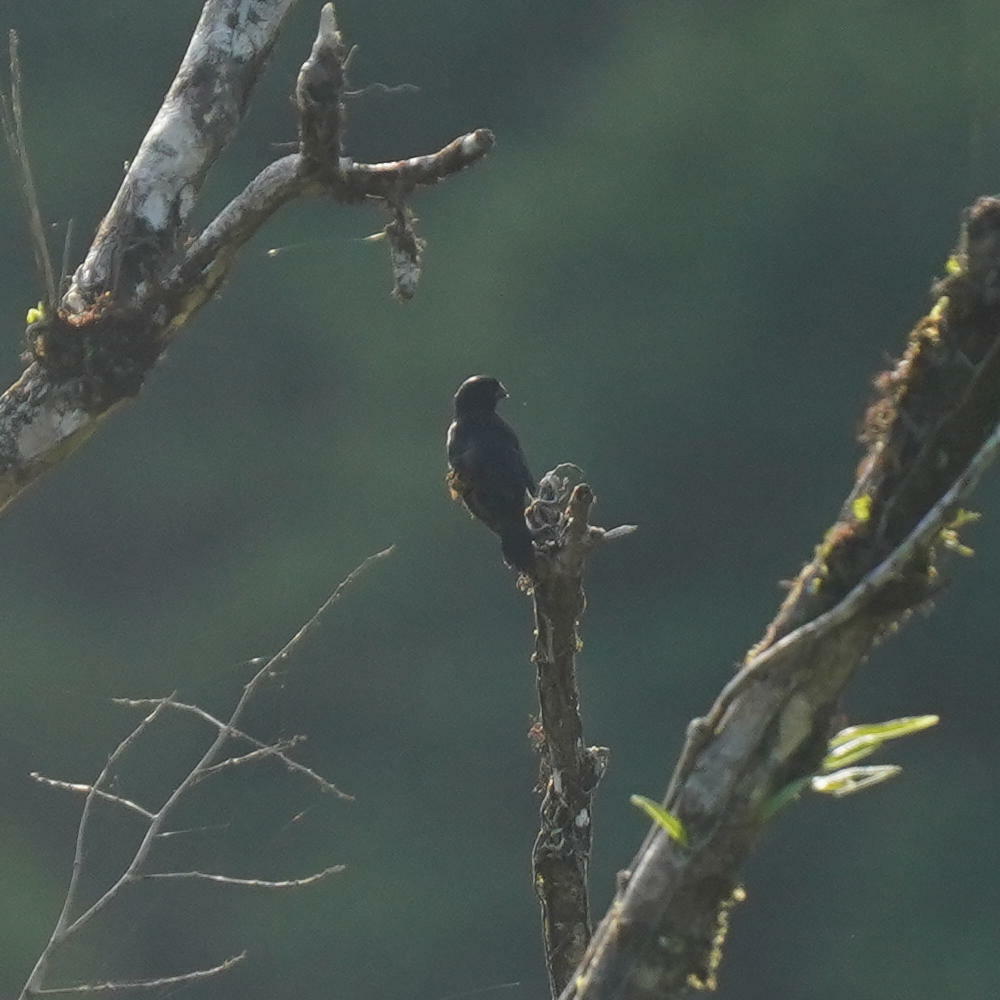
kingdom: Animalia
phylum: Chordata
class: Aves
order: Passeriformes
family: Thraupidae
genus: Sporophila
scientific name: Sporophila funerea
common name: Thick-billed seed-finch
